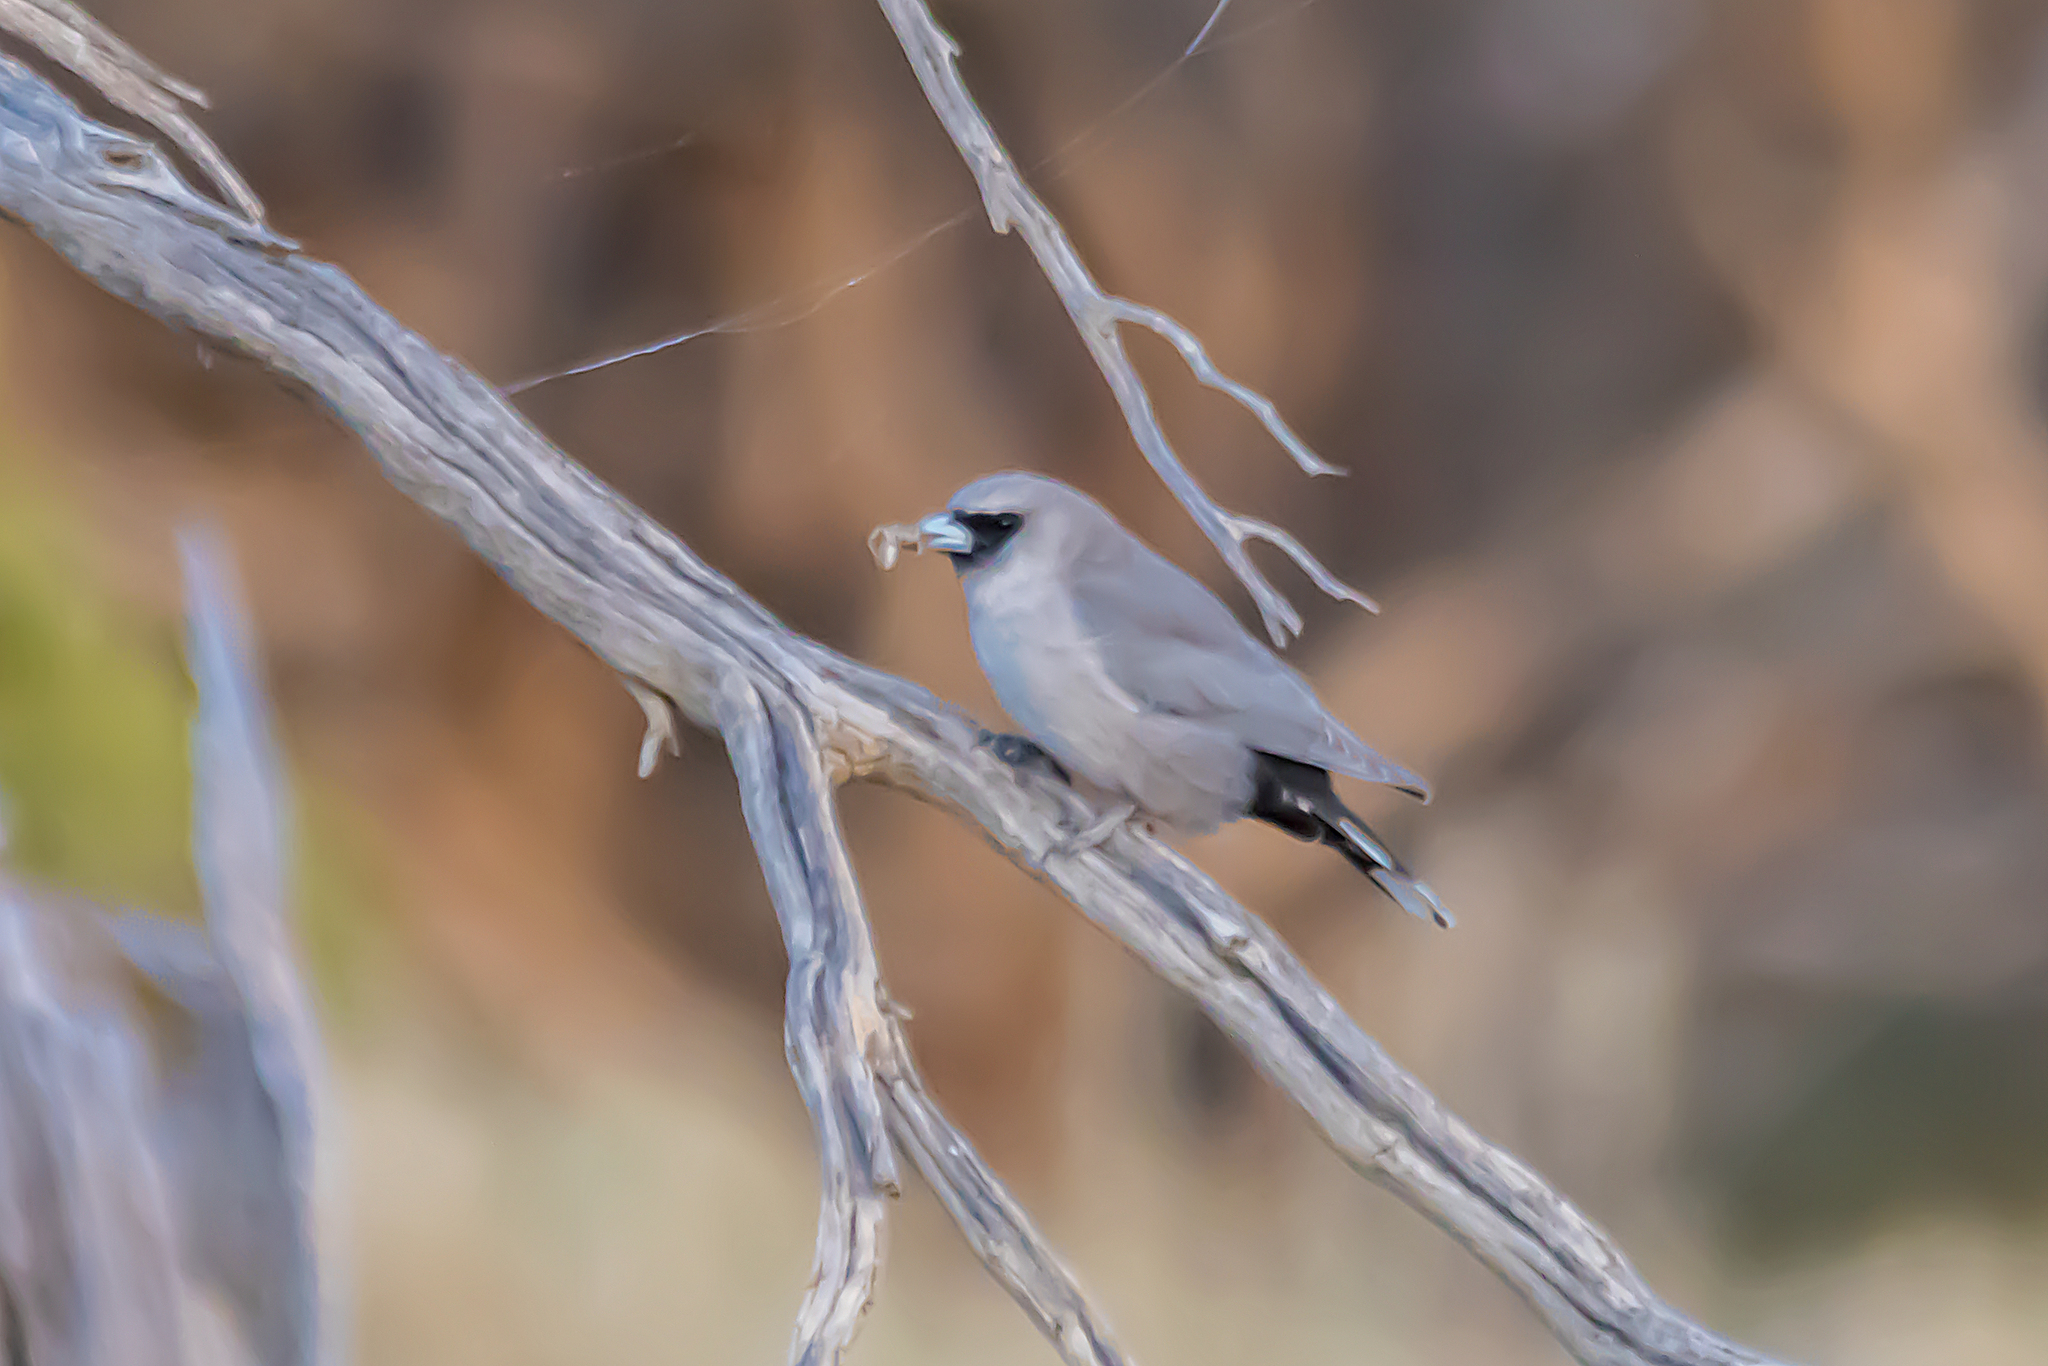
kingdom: Animalia
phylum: Chordata
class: Aves
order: Passeriformes
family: Artamidae
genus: Artamus
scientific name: Artamus cinereus
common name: Black-faced woodswallow
